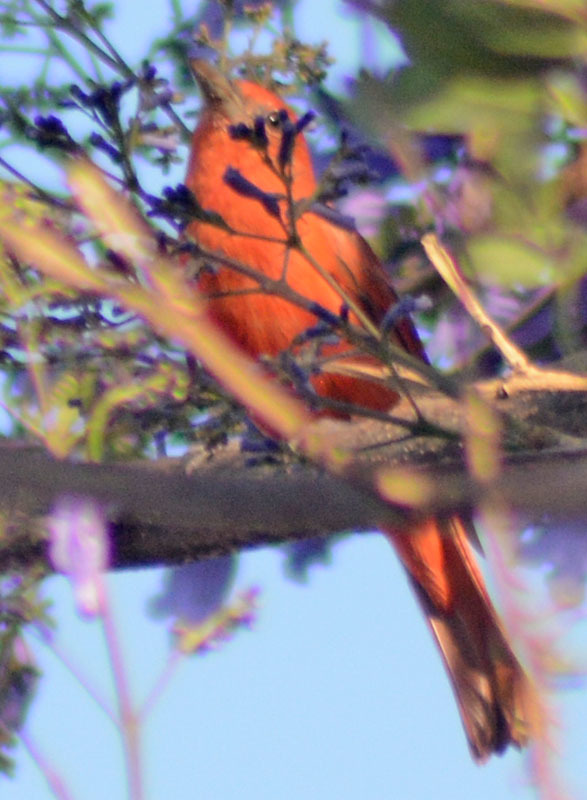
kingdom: Animalia
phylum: Chordata
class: Aves
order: Passeriformes
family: Cardinalidae
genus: Piranga
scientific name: Piranga rubra
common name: Summer tanager
